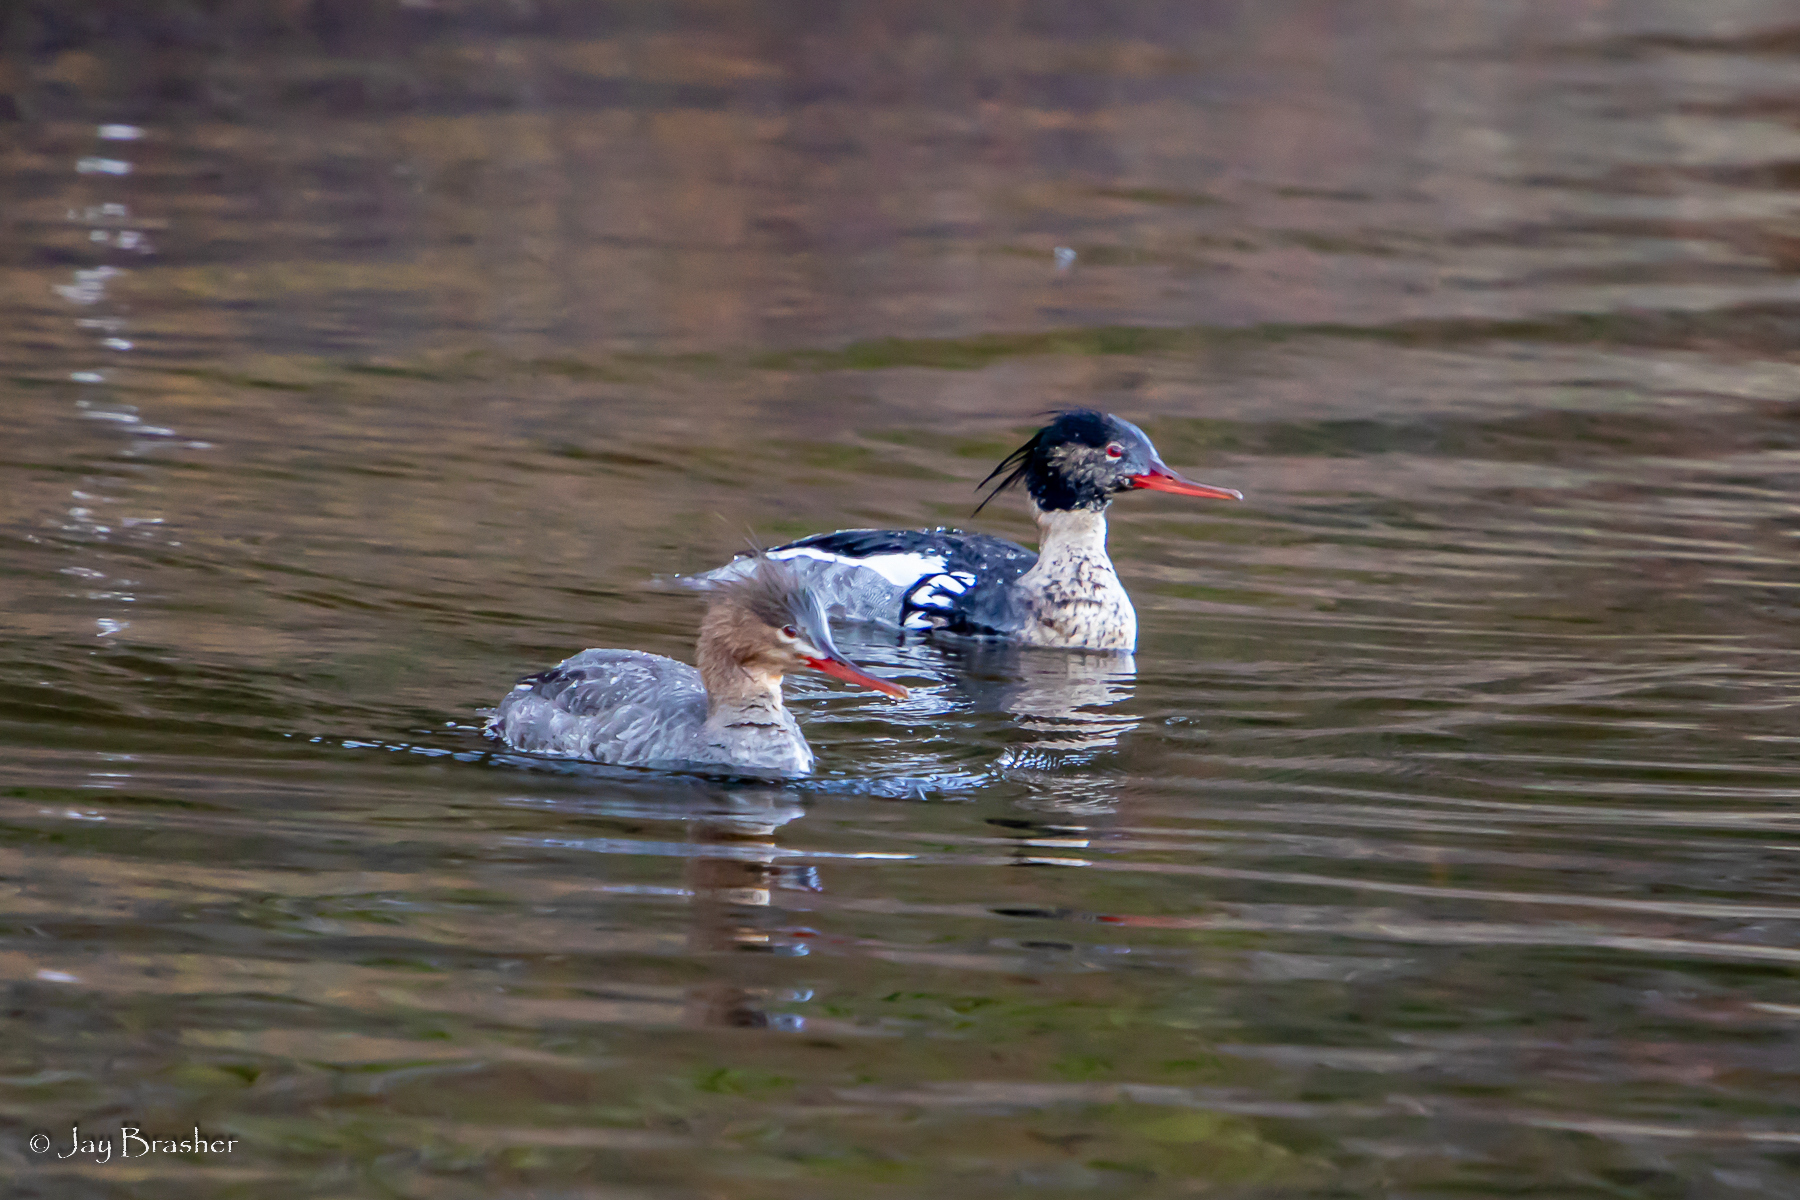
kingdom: Animalia
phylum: Chordata
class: Aves
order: Anseriformes
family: Anatidae
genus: Mergus
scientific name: Mergus serrator
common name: Red-breasted merganser
